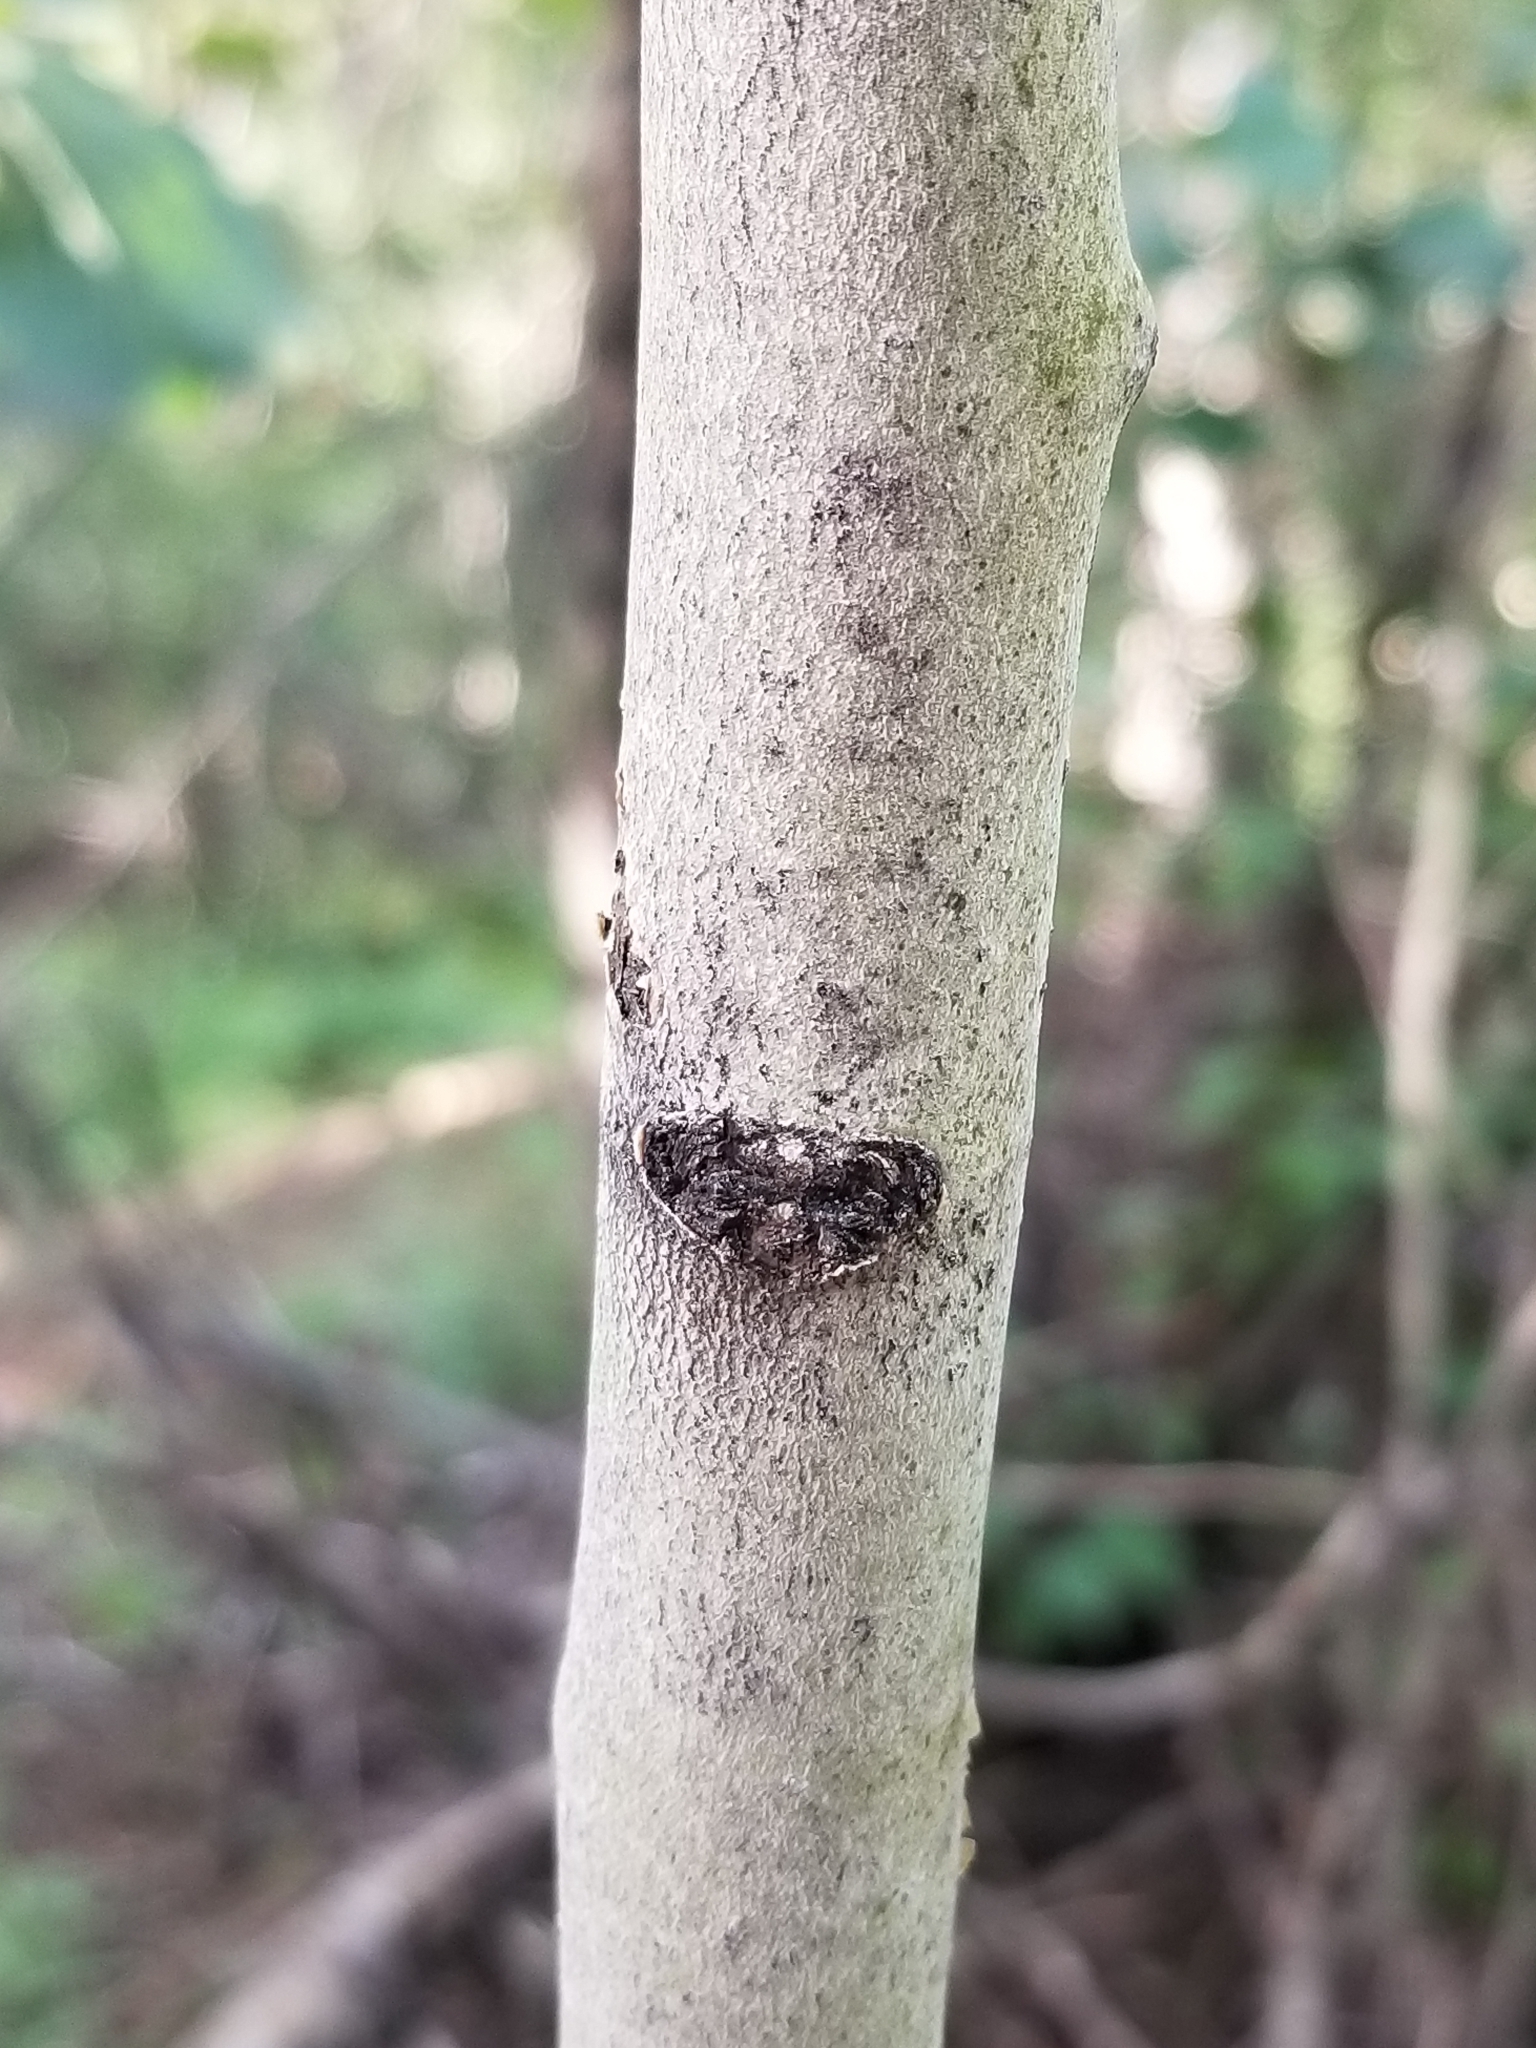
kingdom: Plantae
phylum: Tracheophyta
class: Magnoliopsida
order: Malpighiales
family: Salicaceae
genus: Populus
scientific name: Populus tremuloides
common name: Quaking aspen
